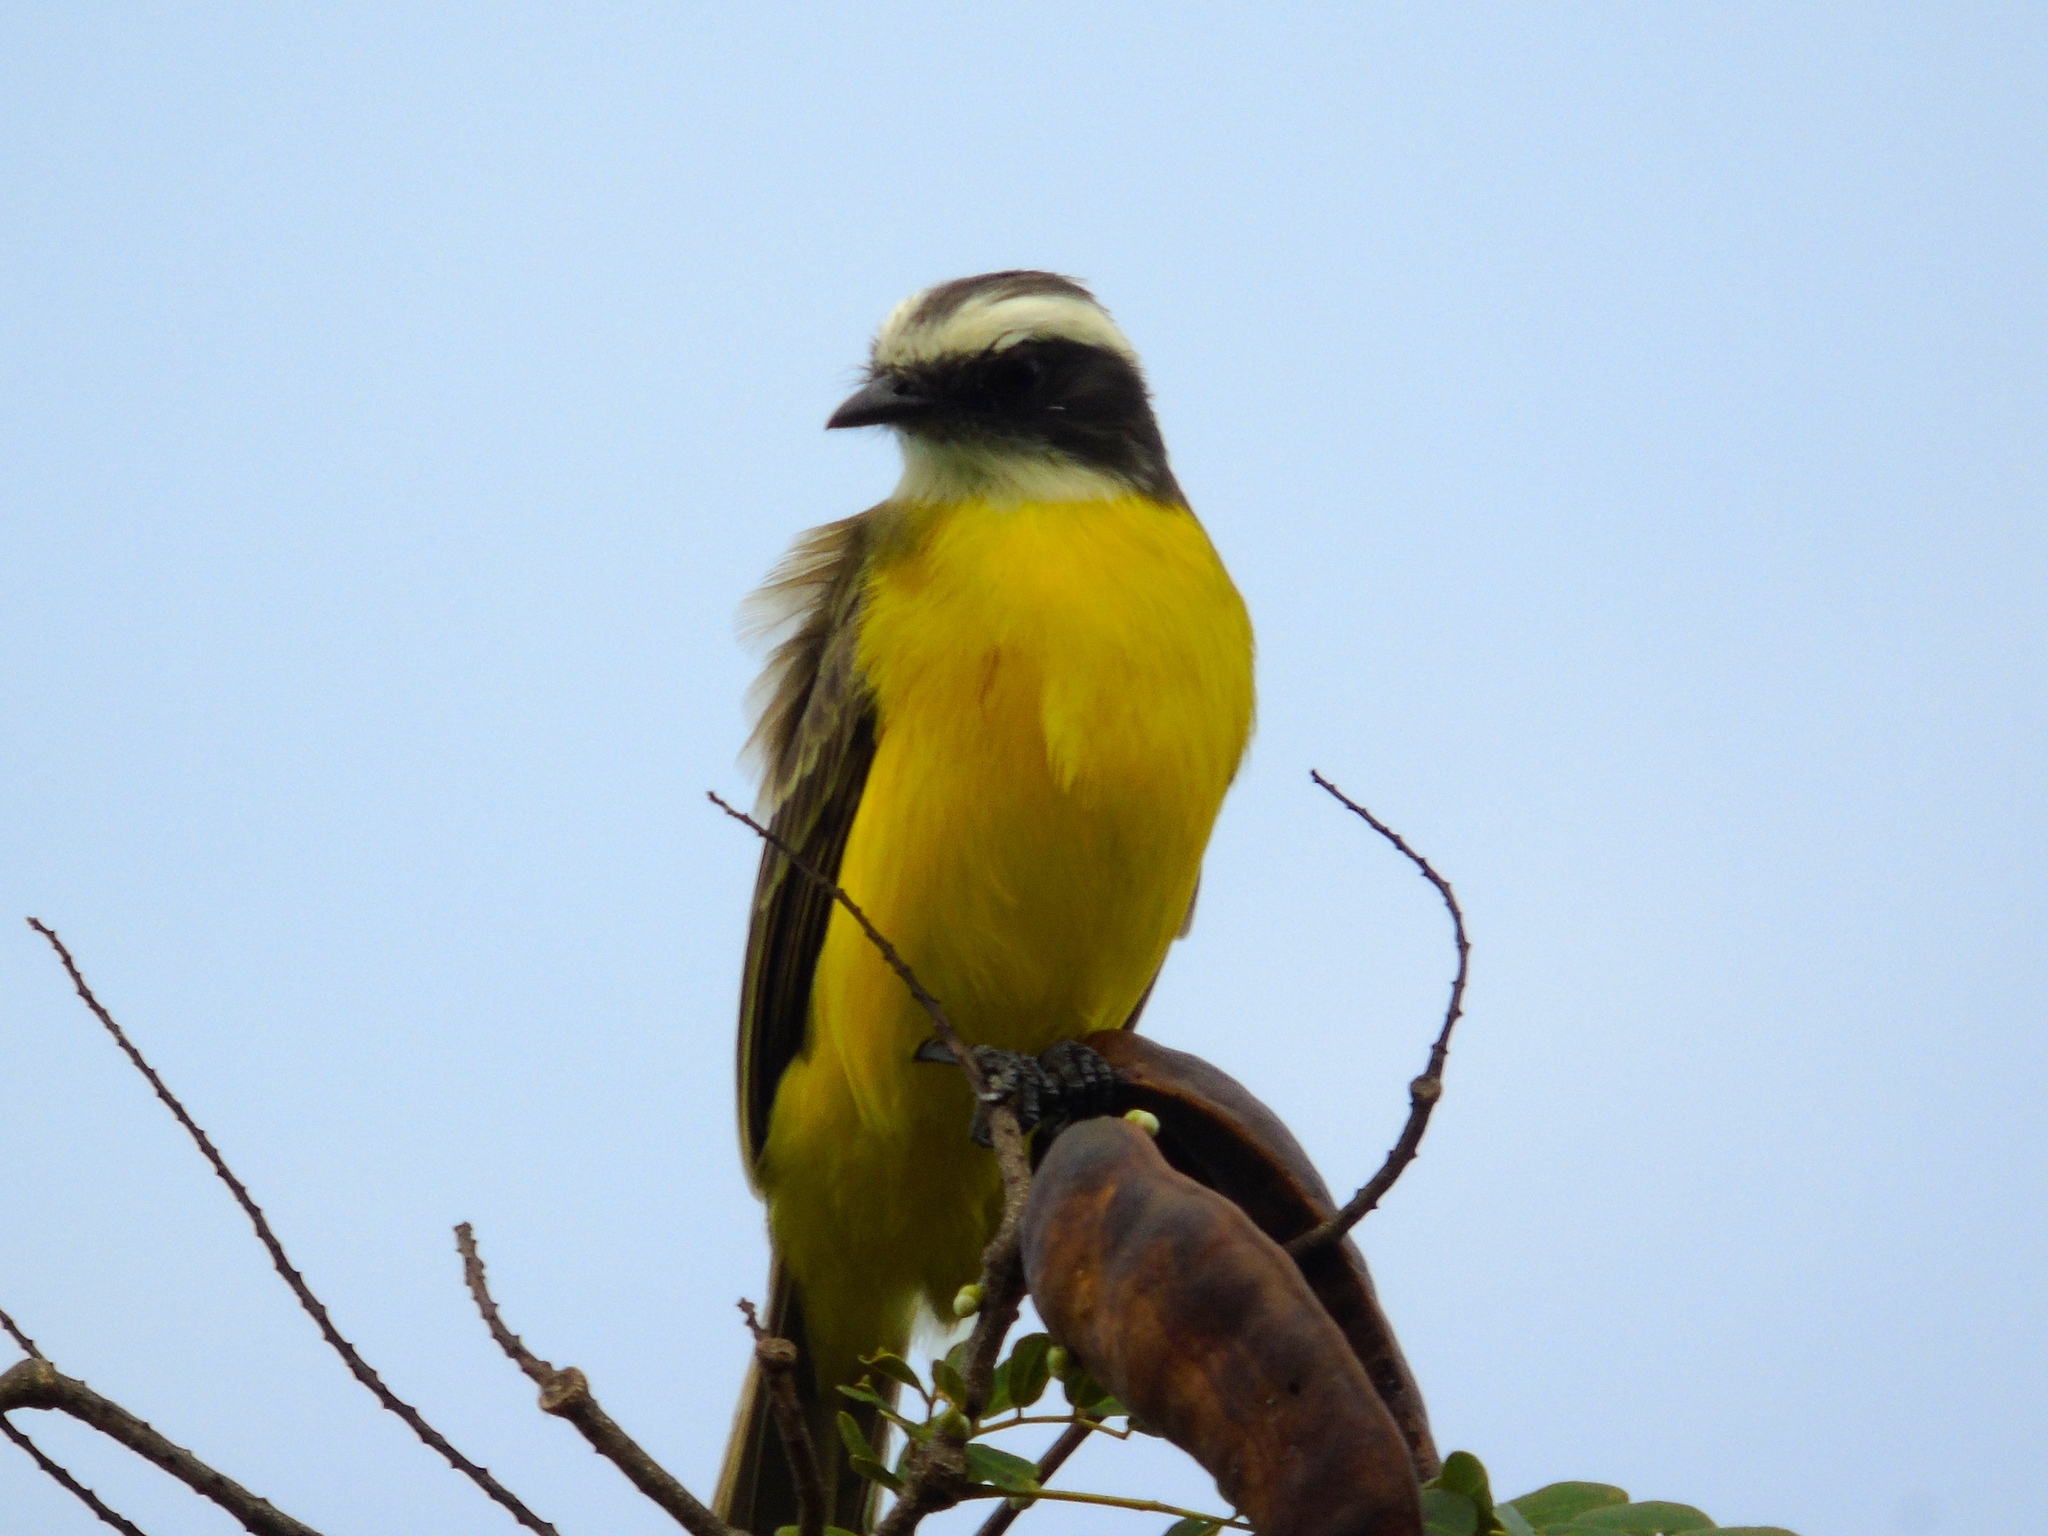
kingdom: Animalia
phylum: Chordata
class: Aves
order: Passeriformes
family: Tyrannidae
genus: Myiozetetes
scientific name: Myiozetetes similis
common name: Social flycatcher
